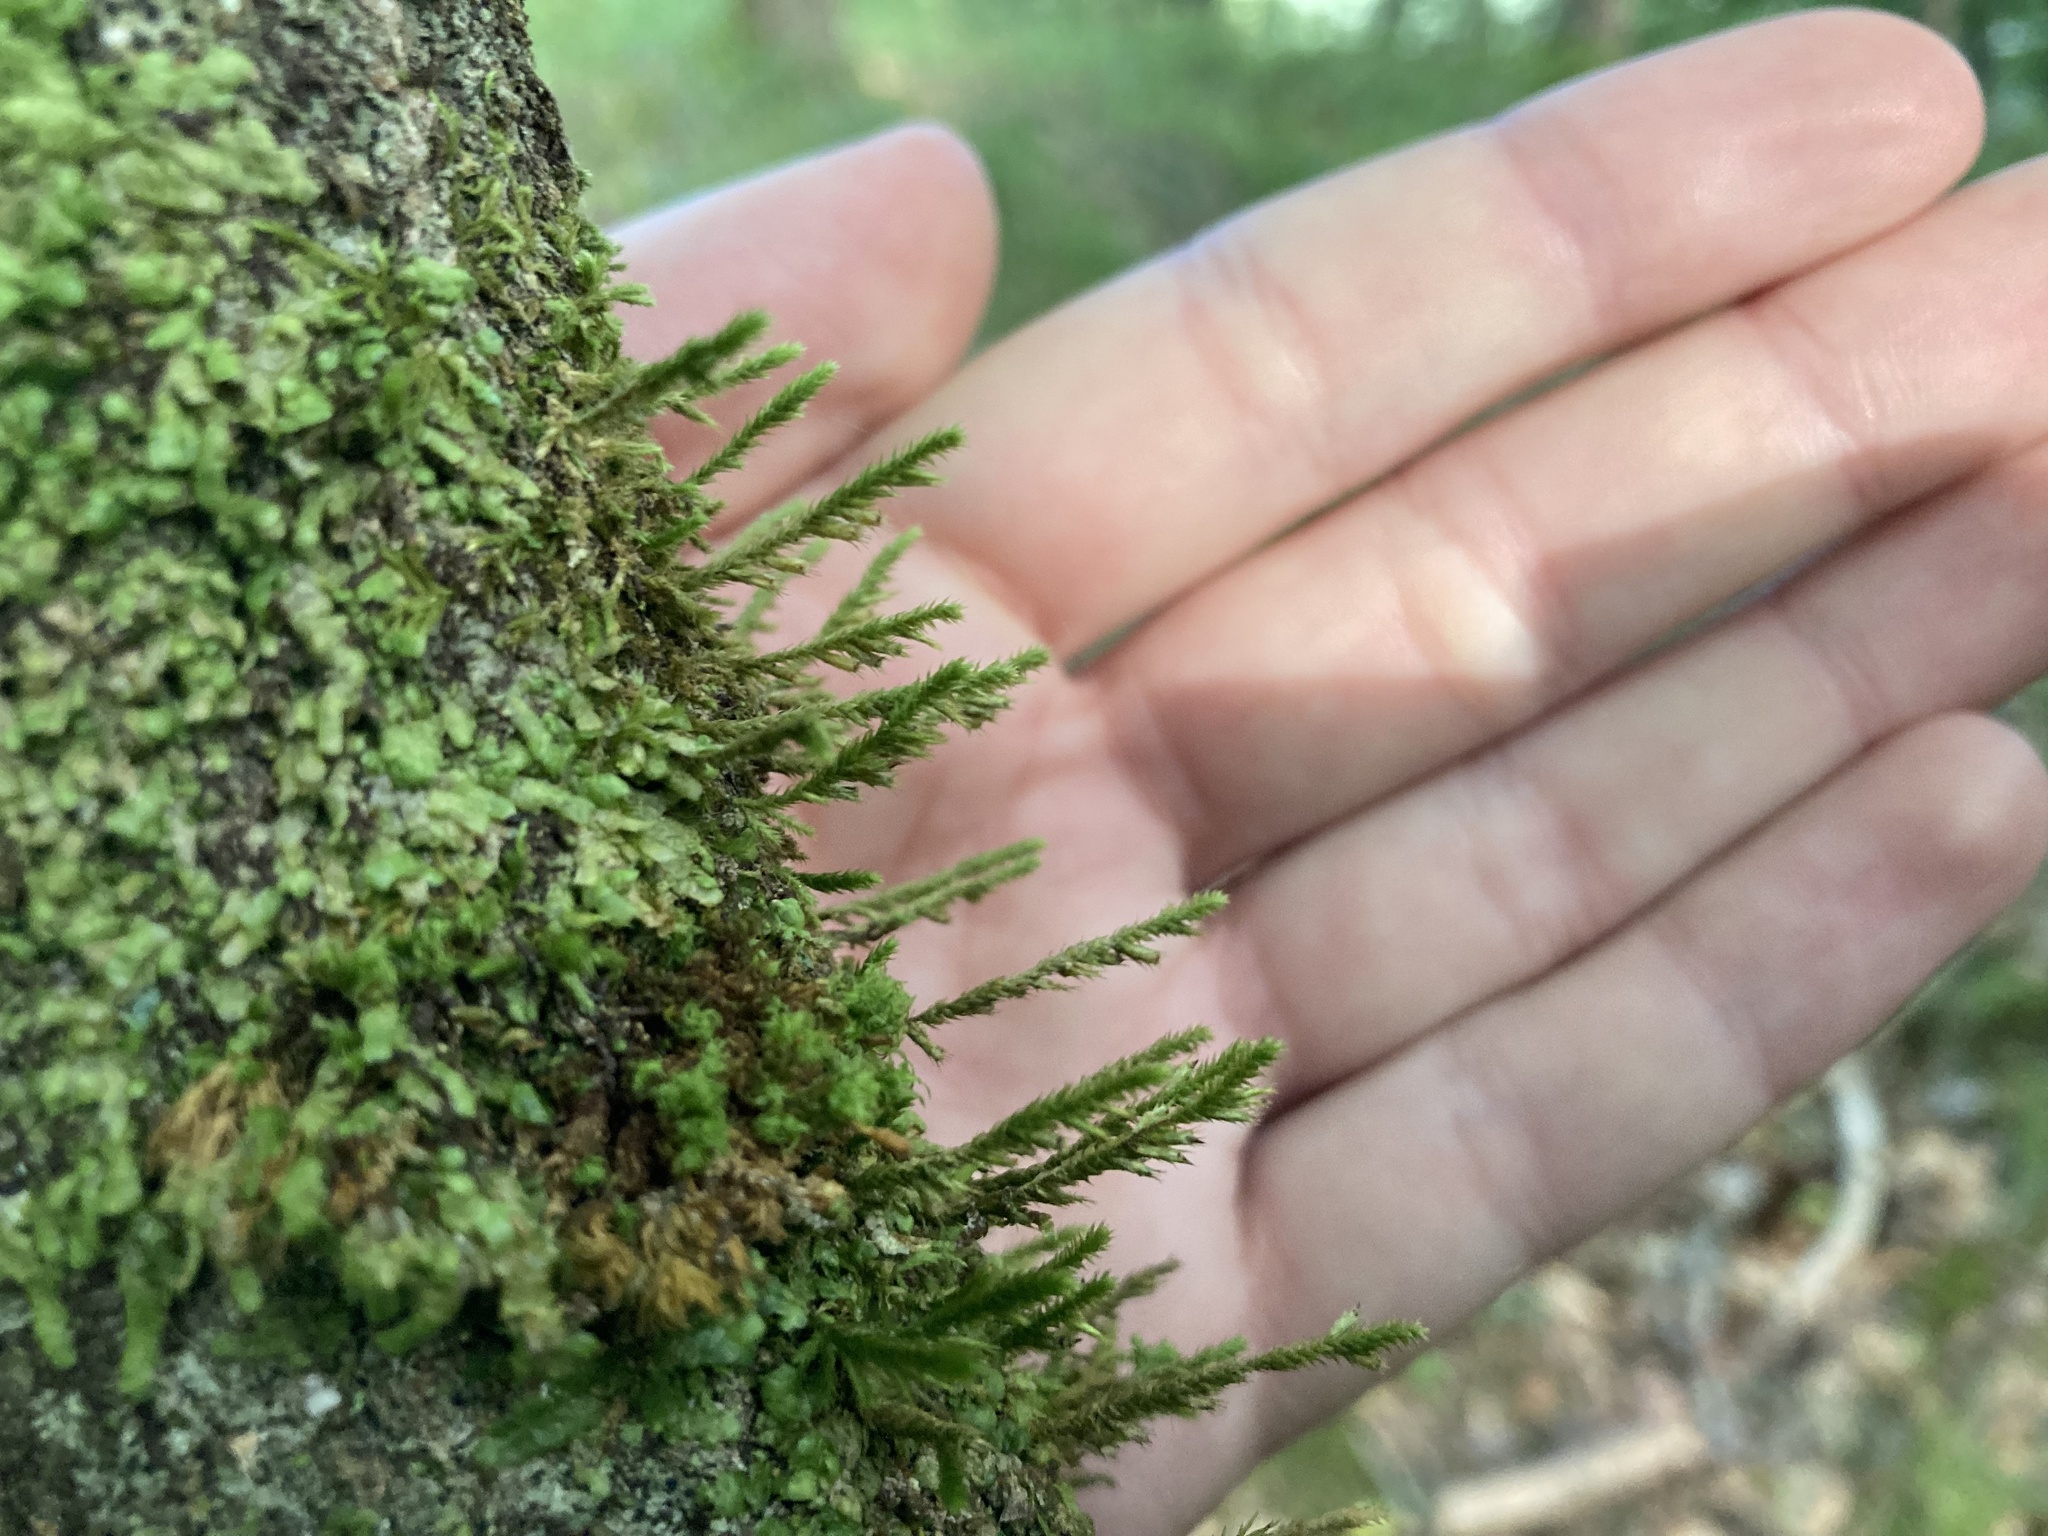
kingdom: Plantae
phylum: Bryophyta
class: Bryopsida
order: Hypnales
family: Cryphaeaceae
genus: Cryphaea
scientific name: Cryphaea heteromalla
